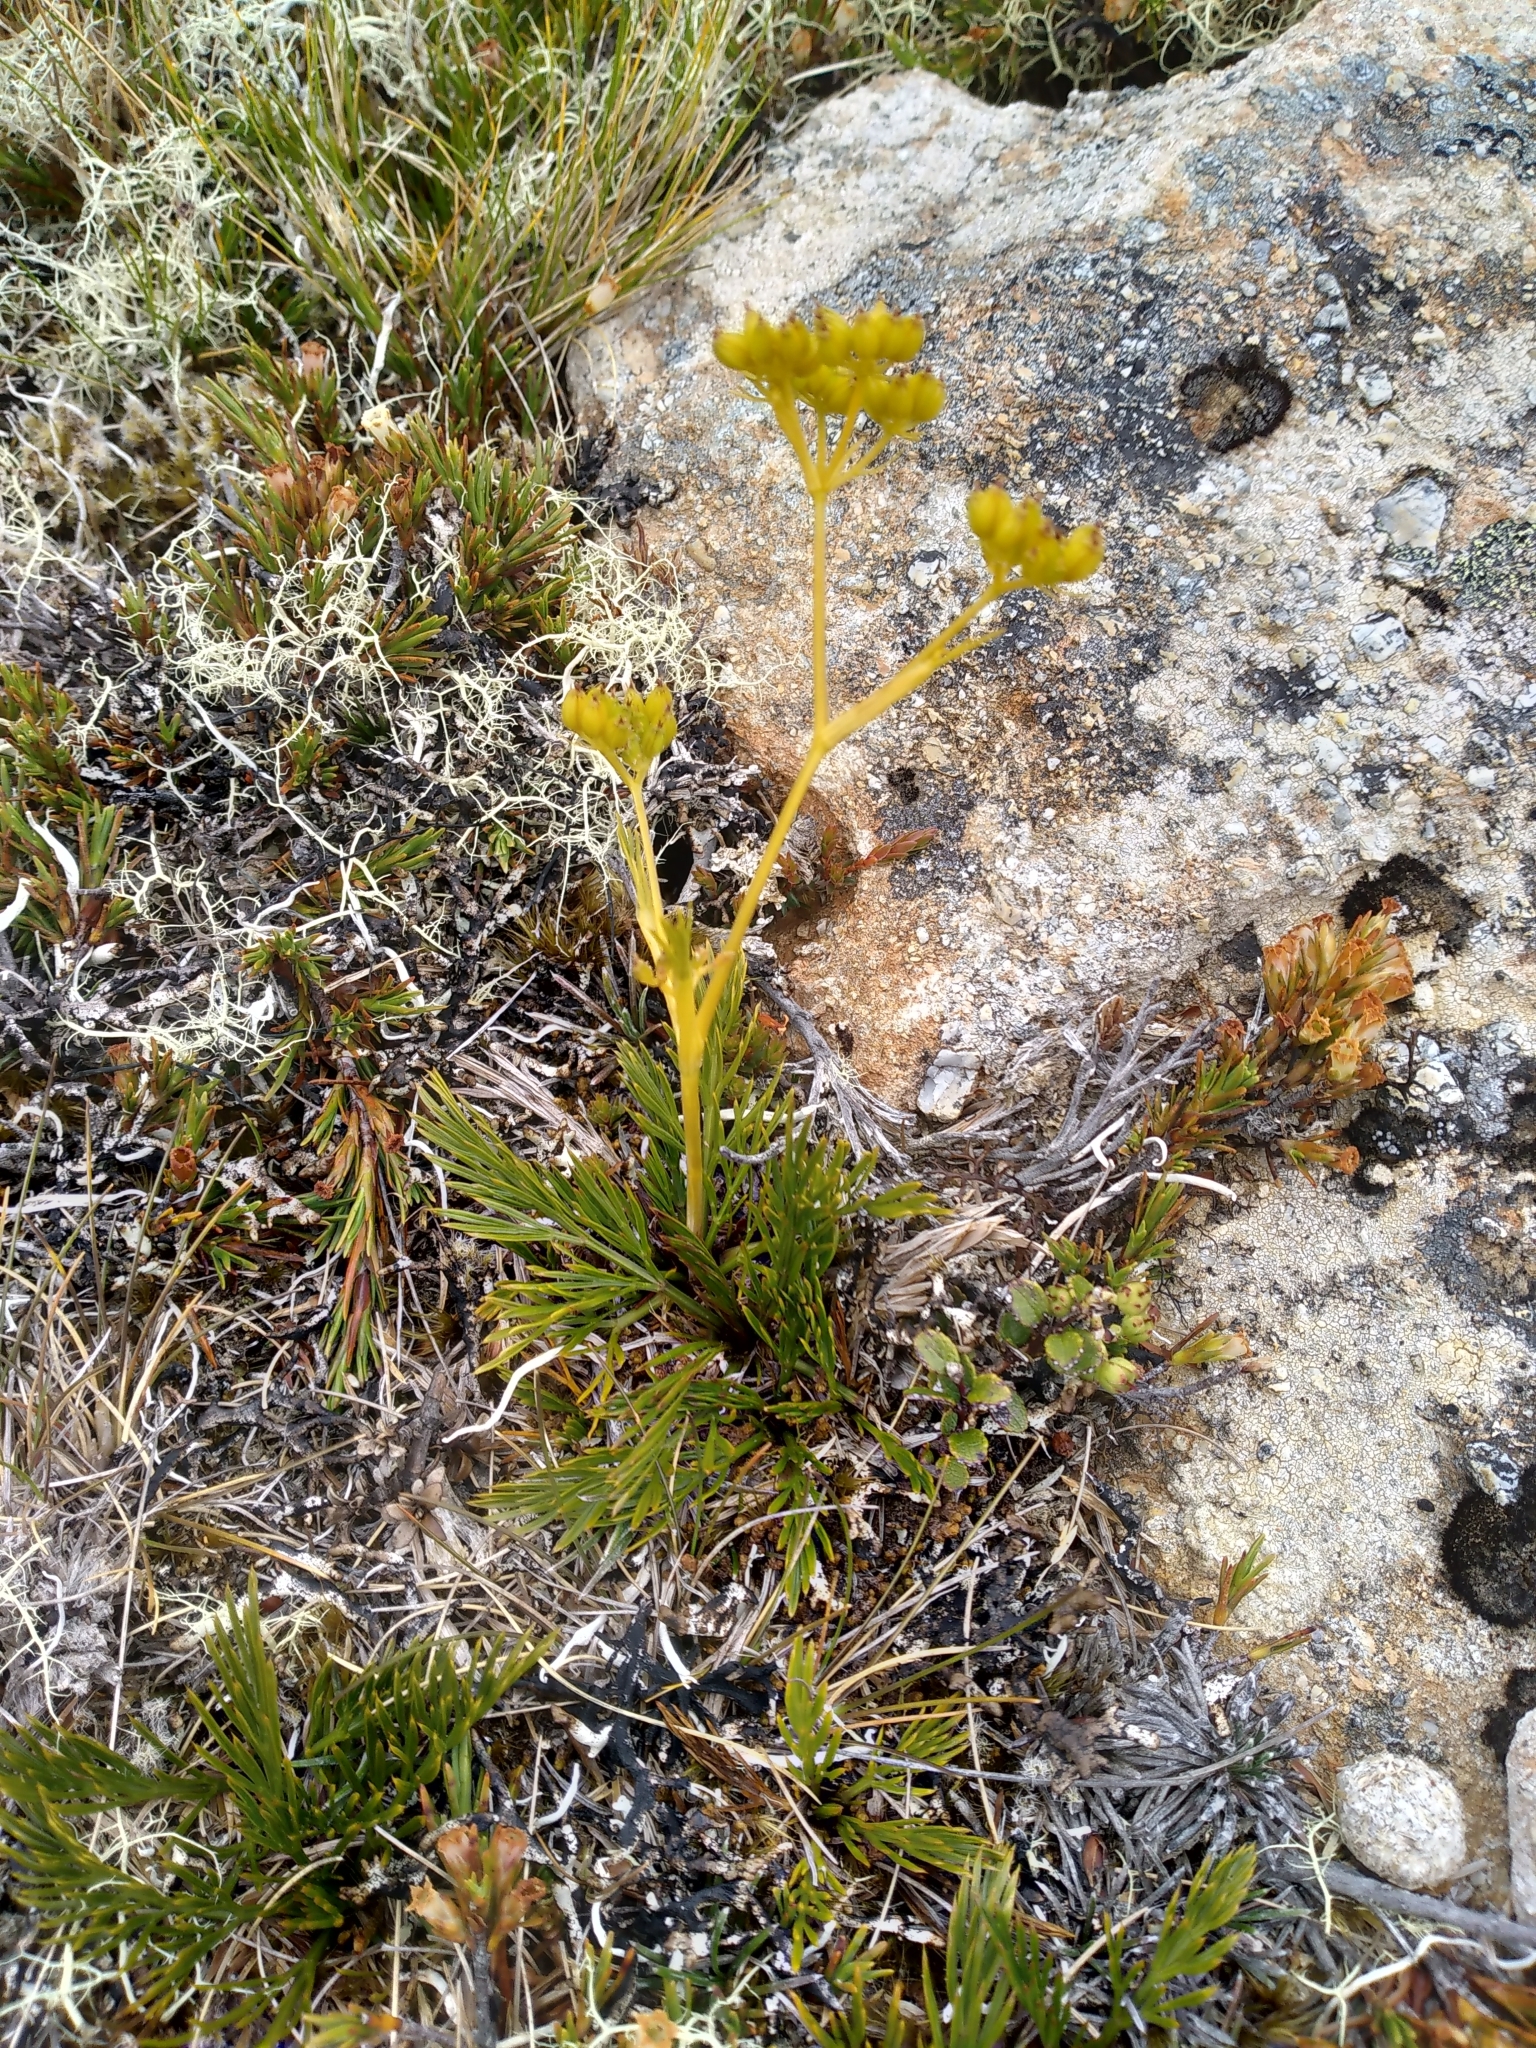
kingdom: Plantae
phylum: Tracheophyta
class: Magnoliopsida
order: Apiales
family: Apiaceae
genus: Aciphylla
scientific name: Aciphylla polita
